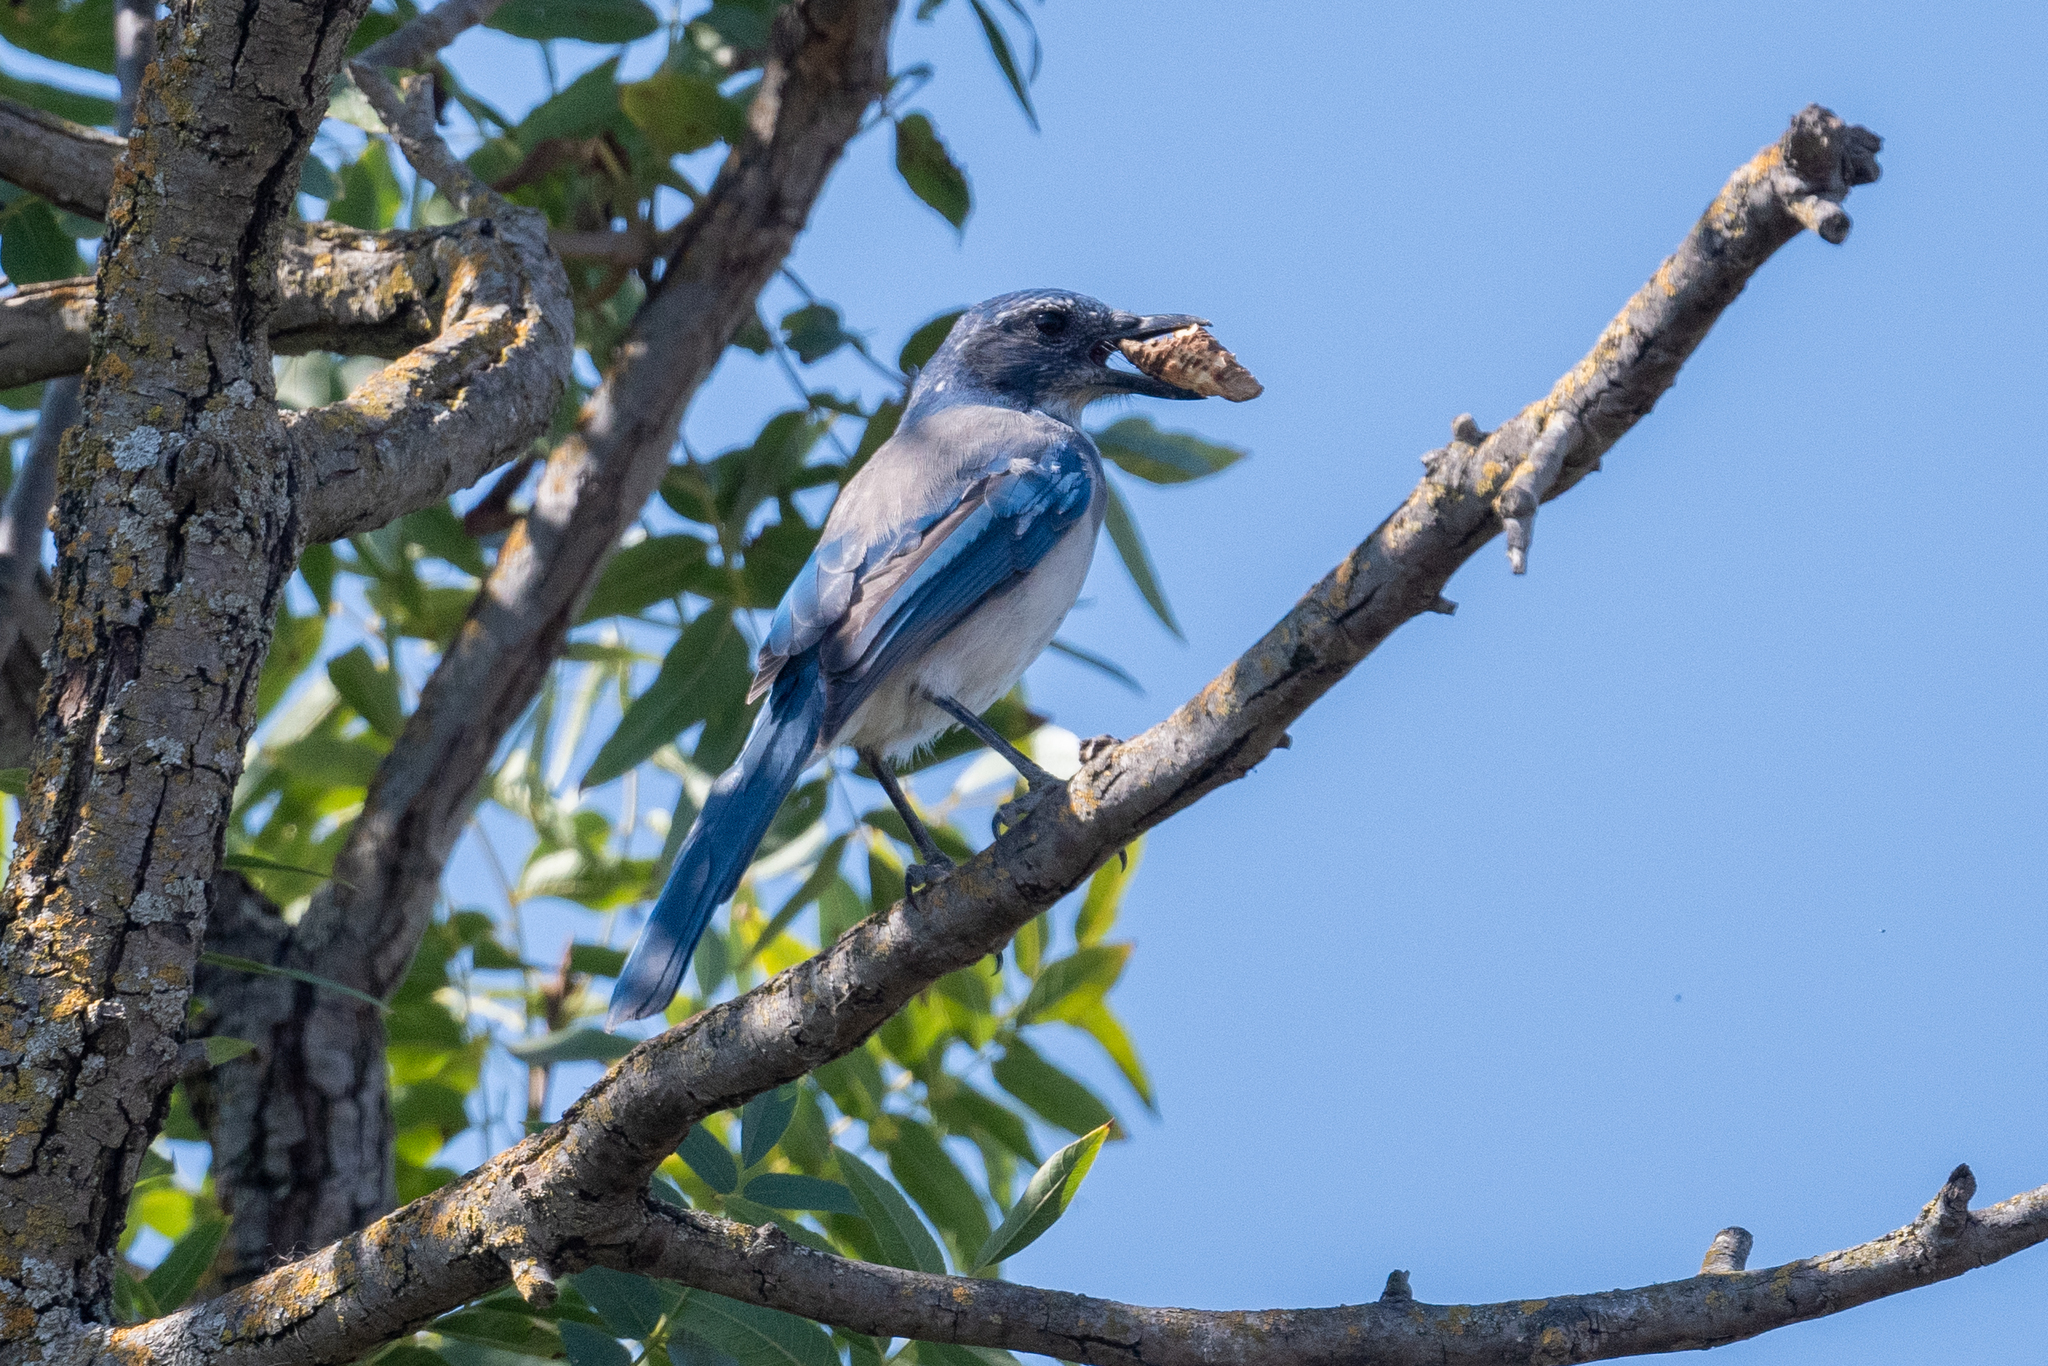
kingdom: Animalia
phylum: Chordata
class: Aves
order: Passeriformes
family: Corvidae
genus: Aphelocoma
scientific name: Aphelocoma californica
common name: California scrub-jay
